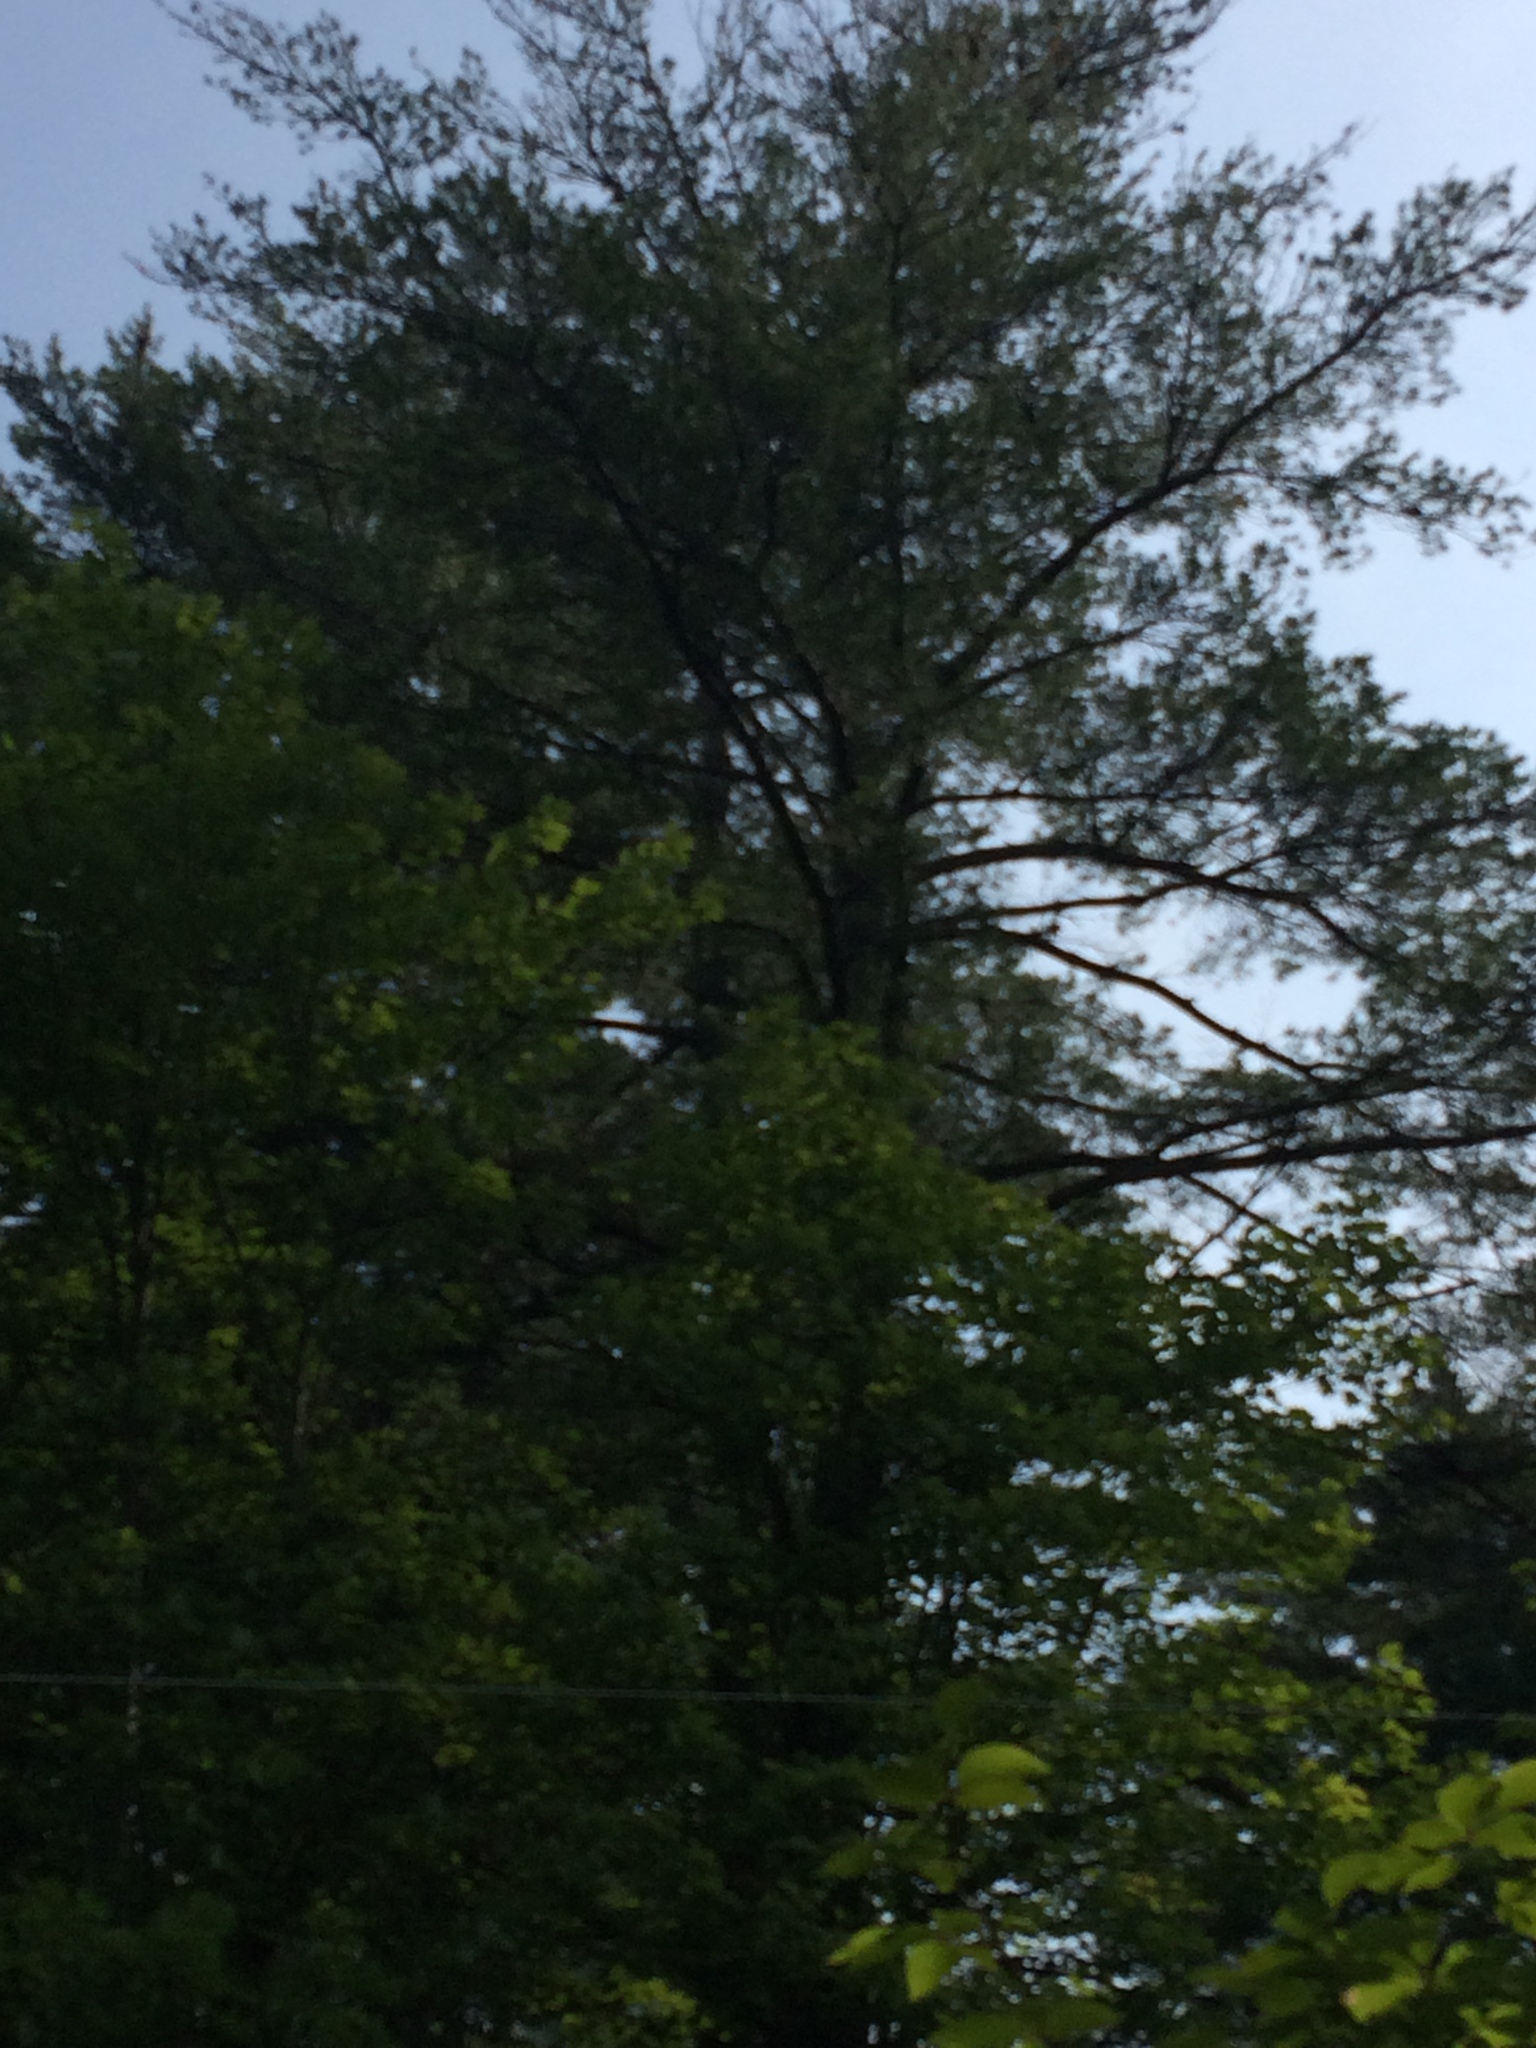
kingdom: Plantae
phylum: Tracheophyta
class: Pinopsida
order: Pinales
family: Pinaceae
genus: Pinus
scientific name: Pinus strobus
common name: Weymouth pine
